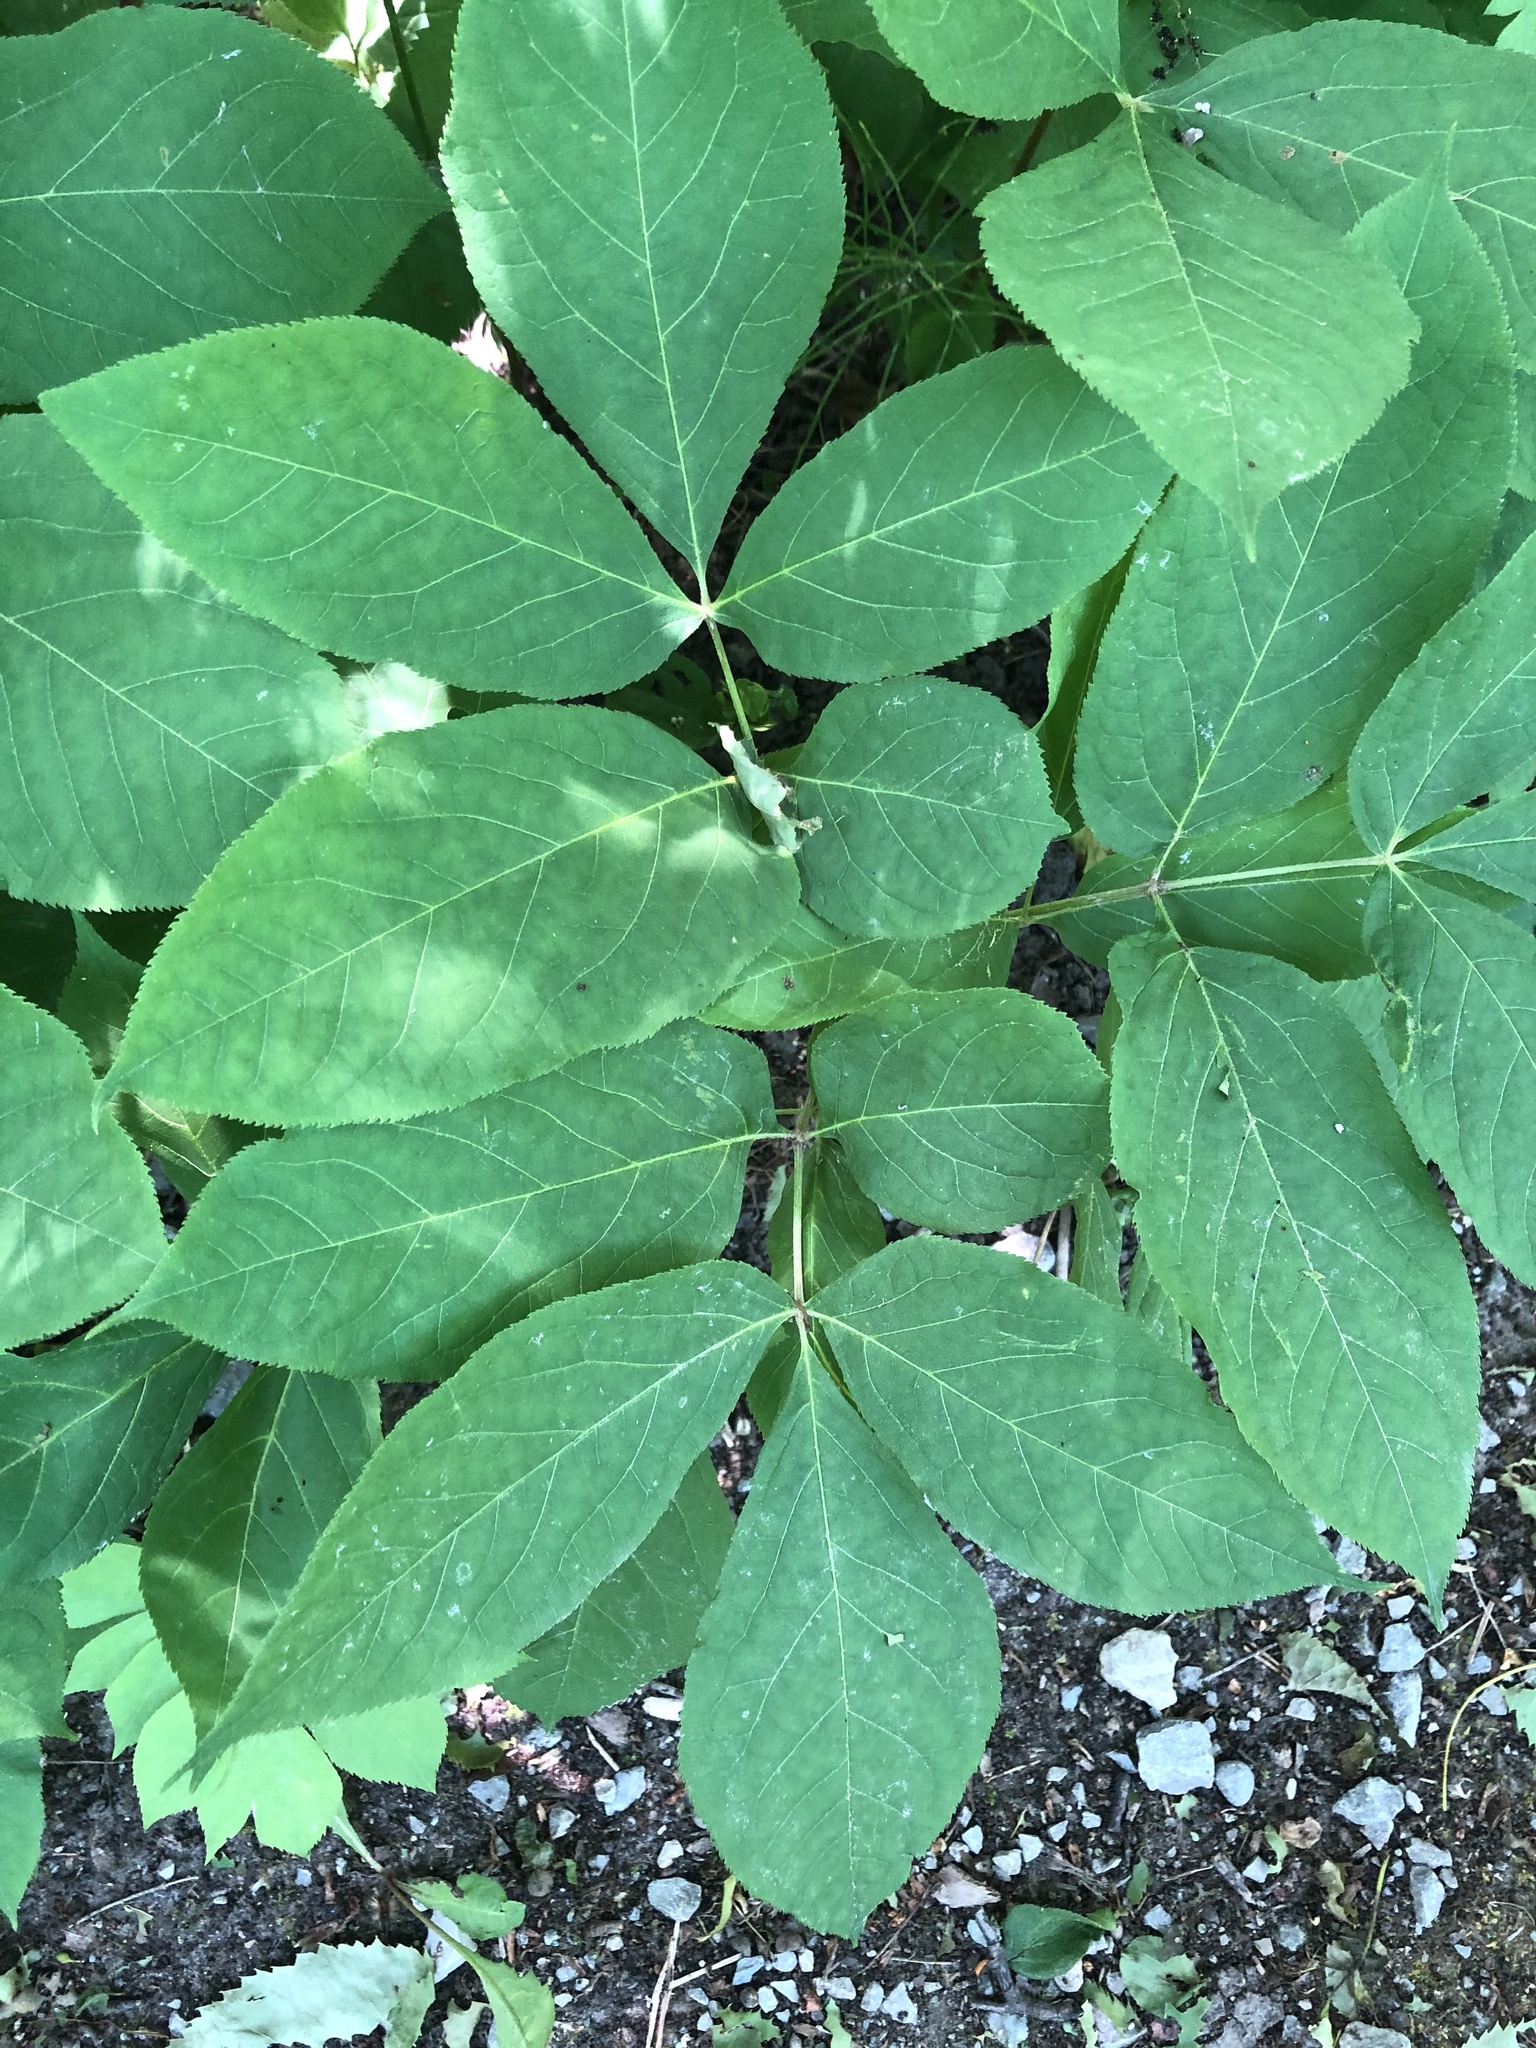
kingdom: Plantae
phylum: Tracheophyta
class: Magnoliopsida
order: Apiales
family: Araliaceae
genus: Aralia
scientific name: Aralia nudicaulis
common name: Wild sarsaparilla
